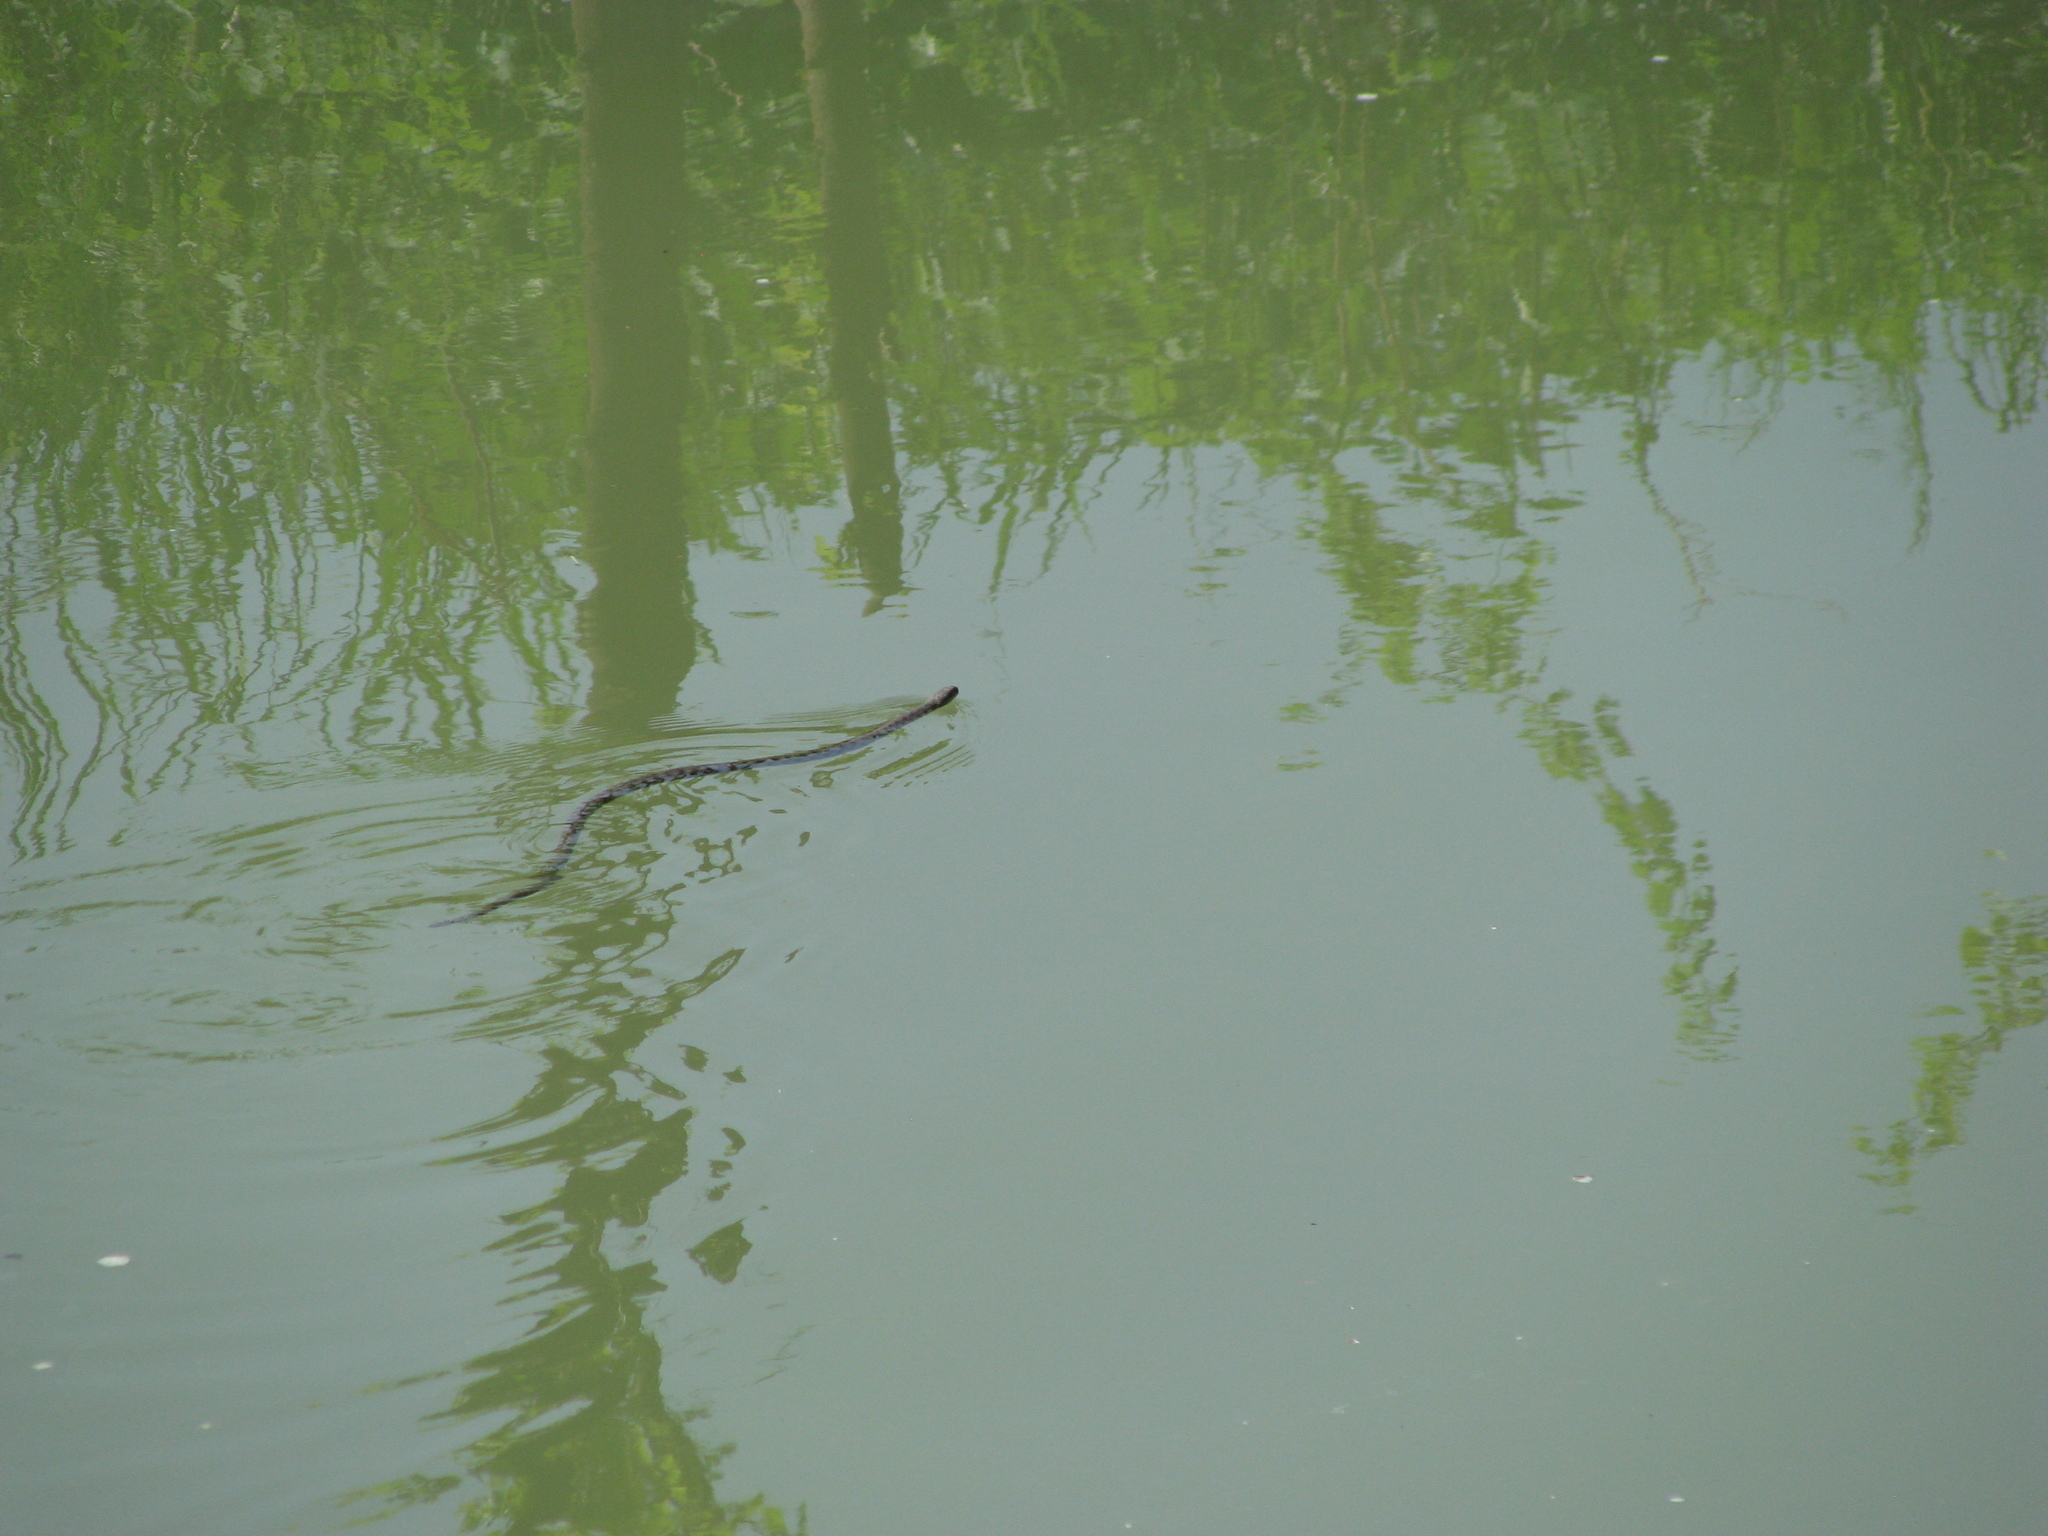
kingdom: Animalia
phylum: Chordata
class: Squamata
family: Colubridae
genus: Natrix
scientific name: Natrix tessellata
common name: Dice snake
